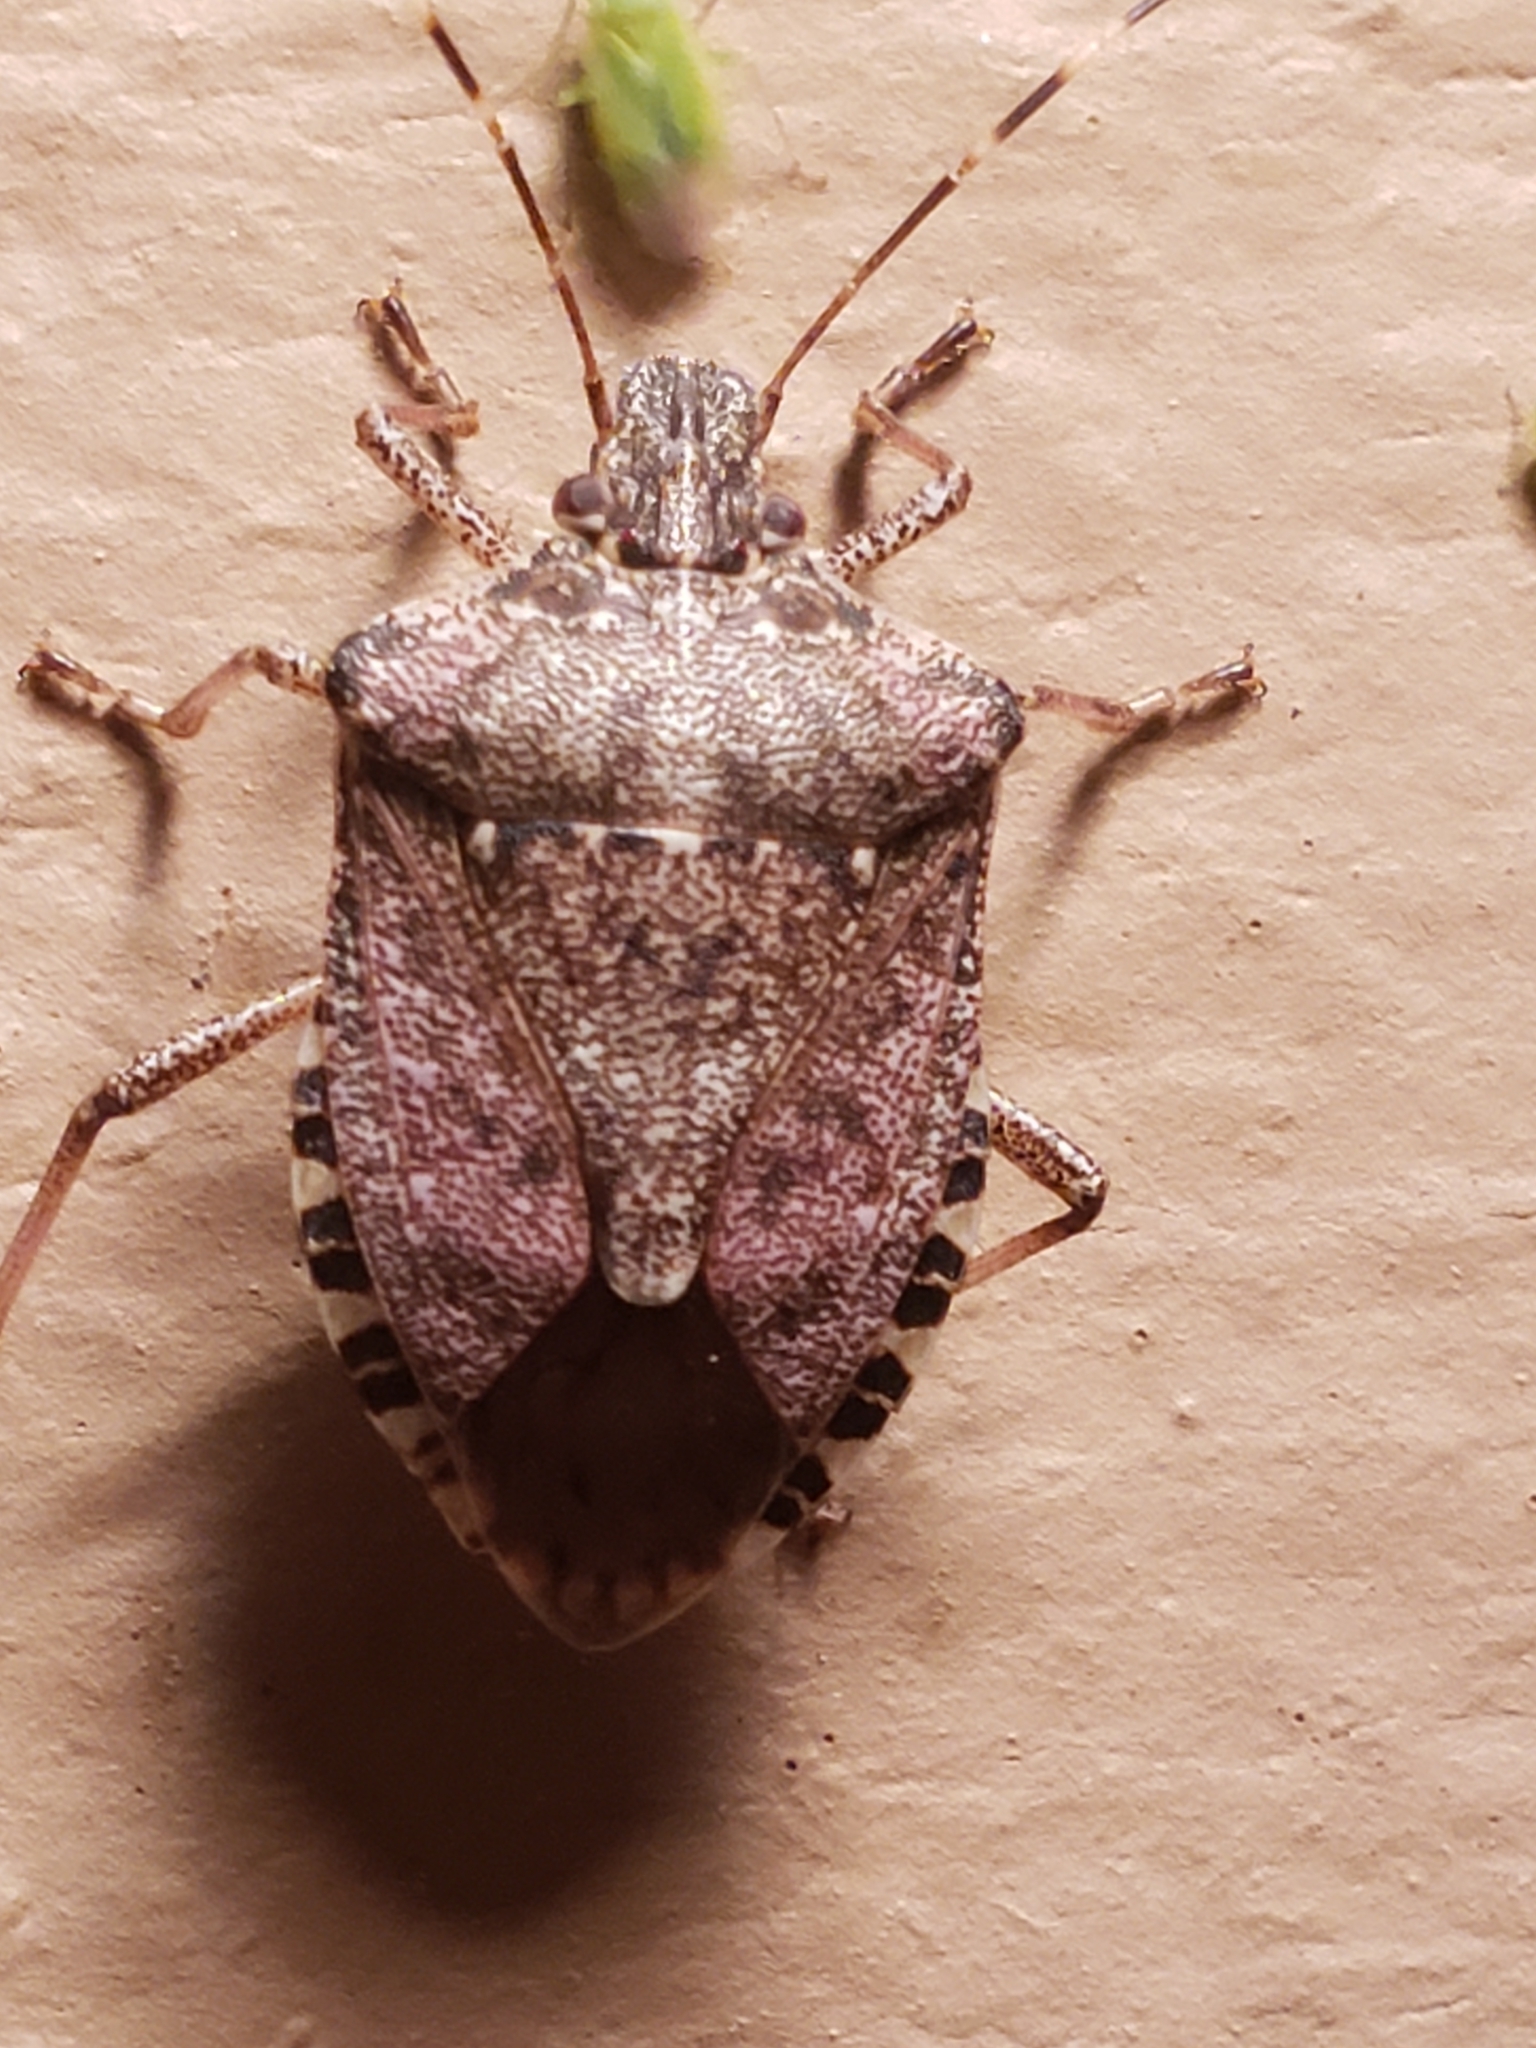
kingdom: Animalia
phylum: Arthropoda
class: Insecta
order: Hemiptera
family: Pentatomidae
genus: Halyomorpha
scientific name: Halyomorpha halys
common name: Brown marmorated stink bug
